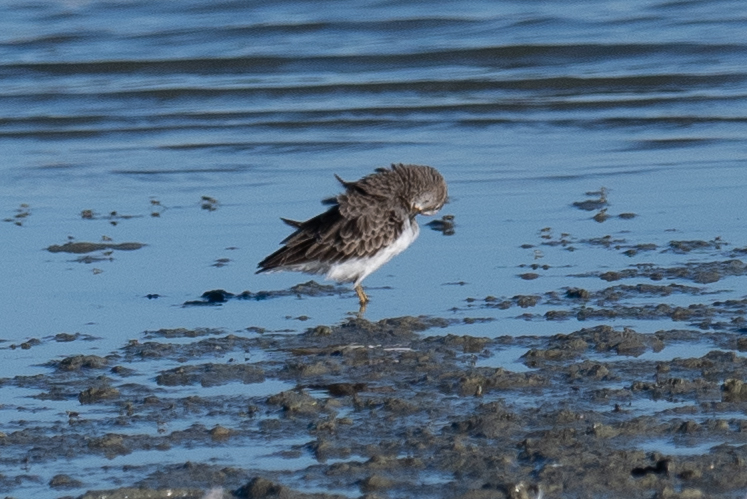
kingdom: Animalia
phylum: Chordata
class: Aves
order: Charadriiformes
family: Scolopacidae
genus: Calidris
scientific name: Calidris minutilla
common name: Least sandpiper
